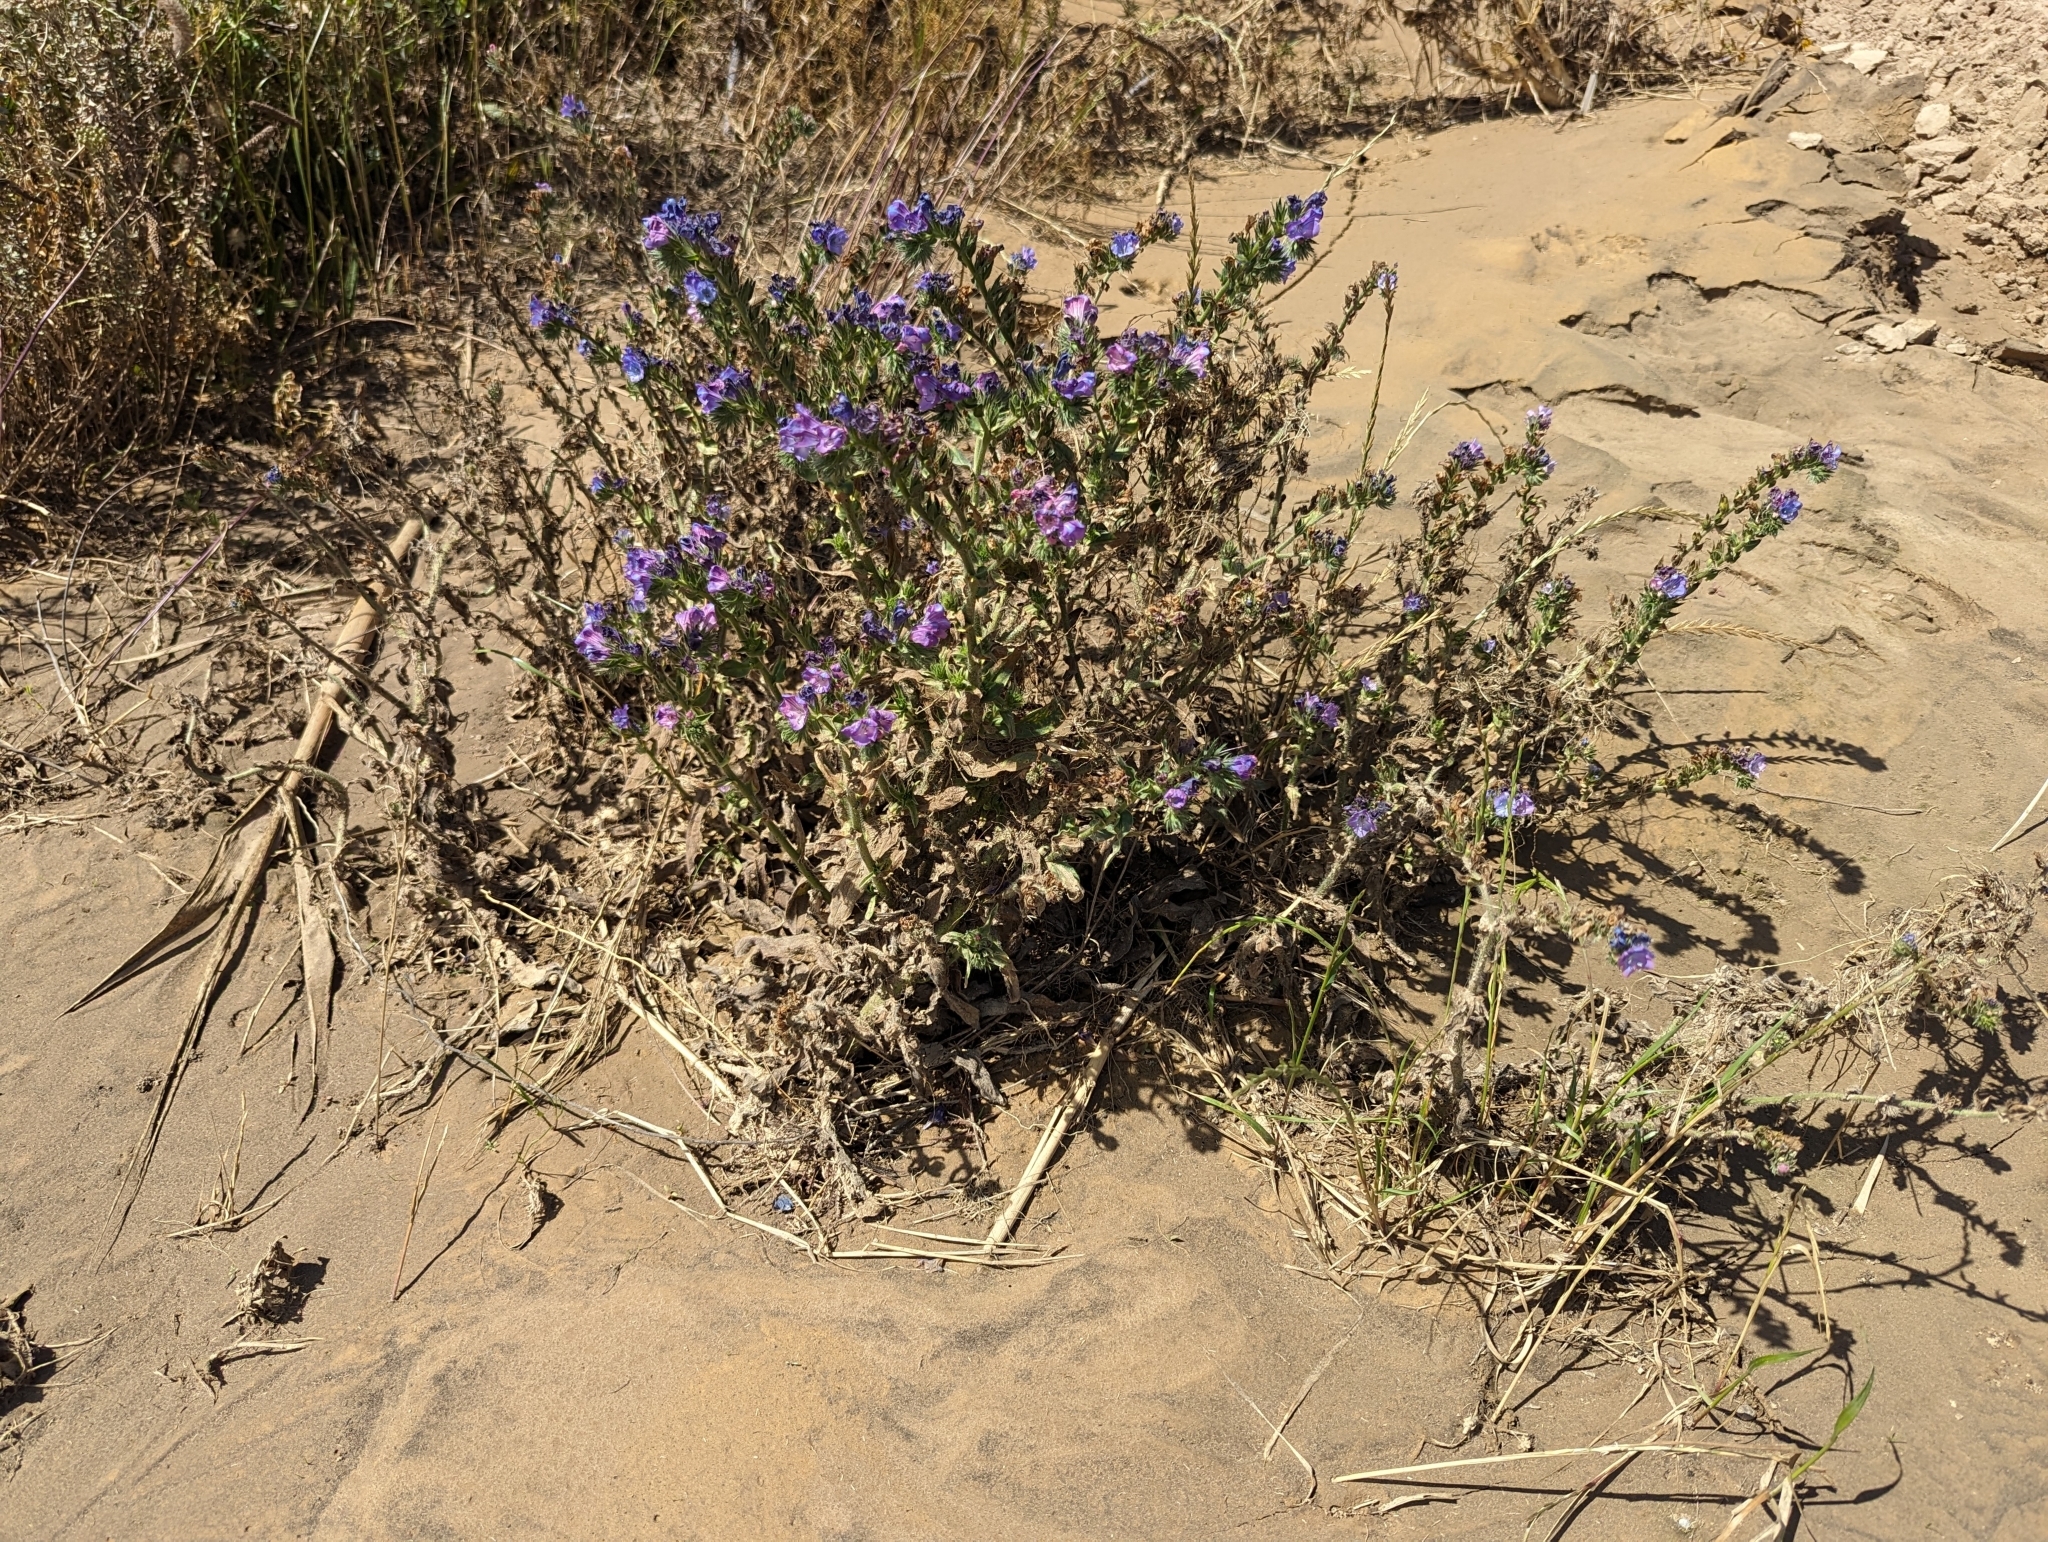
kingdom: Plantae
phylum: Tracheophyta
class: Magnoliopsida
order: Boraginales
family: Boraginaceae
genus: Echium
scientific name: Echium plantagineum
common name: Purple viper's-bugloss
